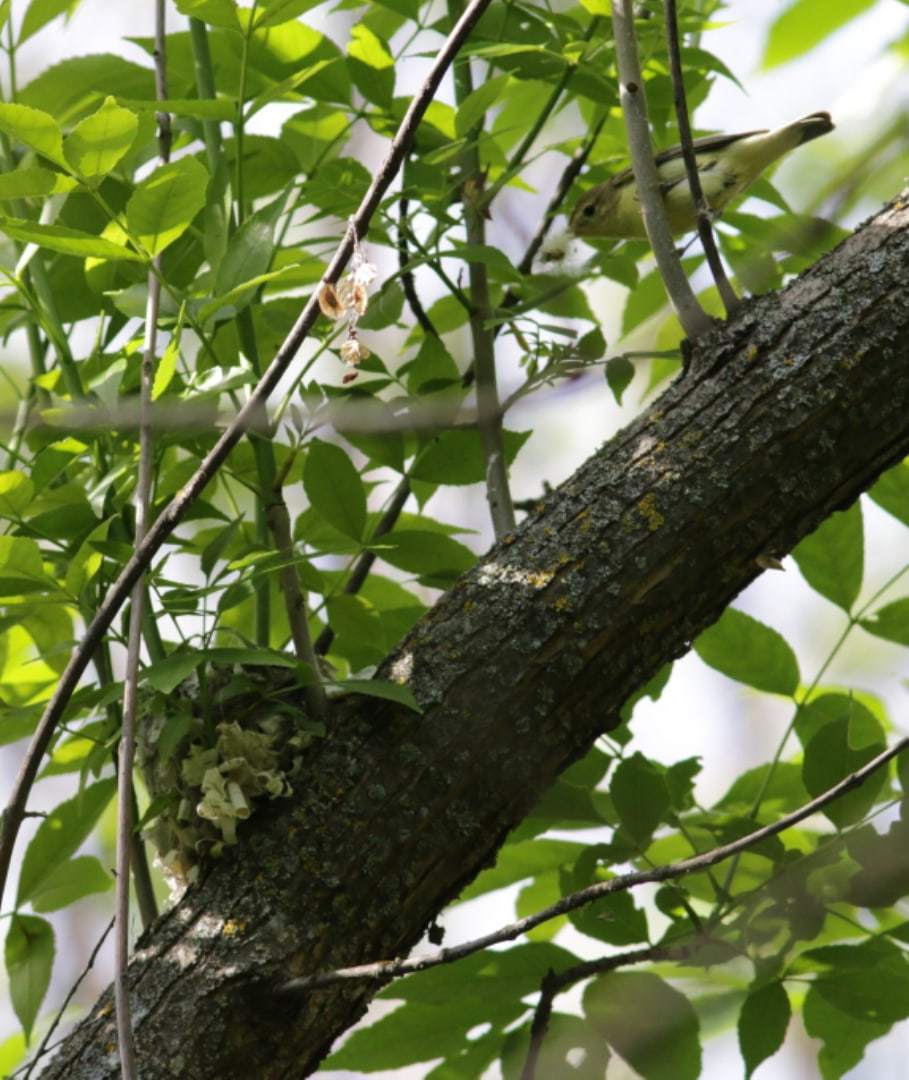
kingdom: Animalia
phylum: Chordata
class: Aves
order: Passeriformes
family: Acrocephalidae
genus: Hippolais
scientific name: Hippolais icterina
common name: Icterine warbler
